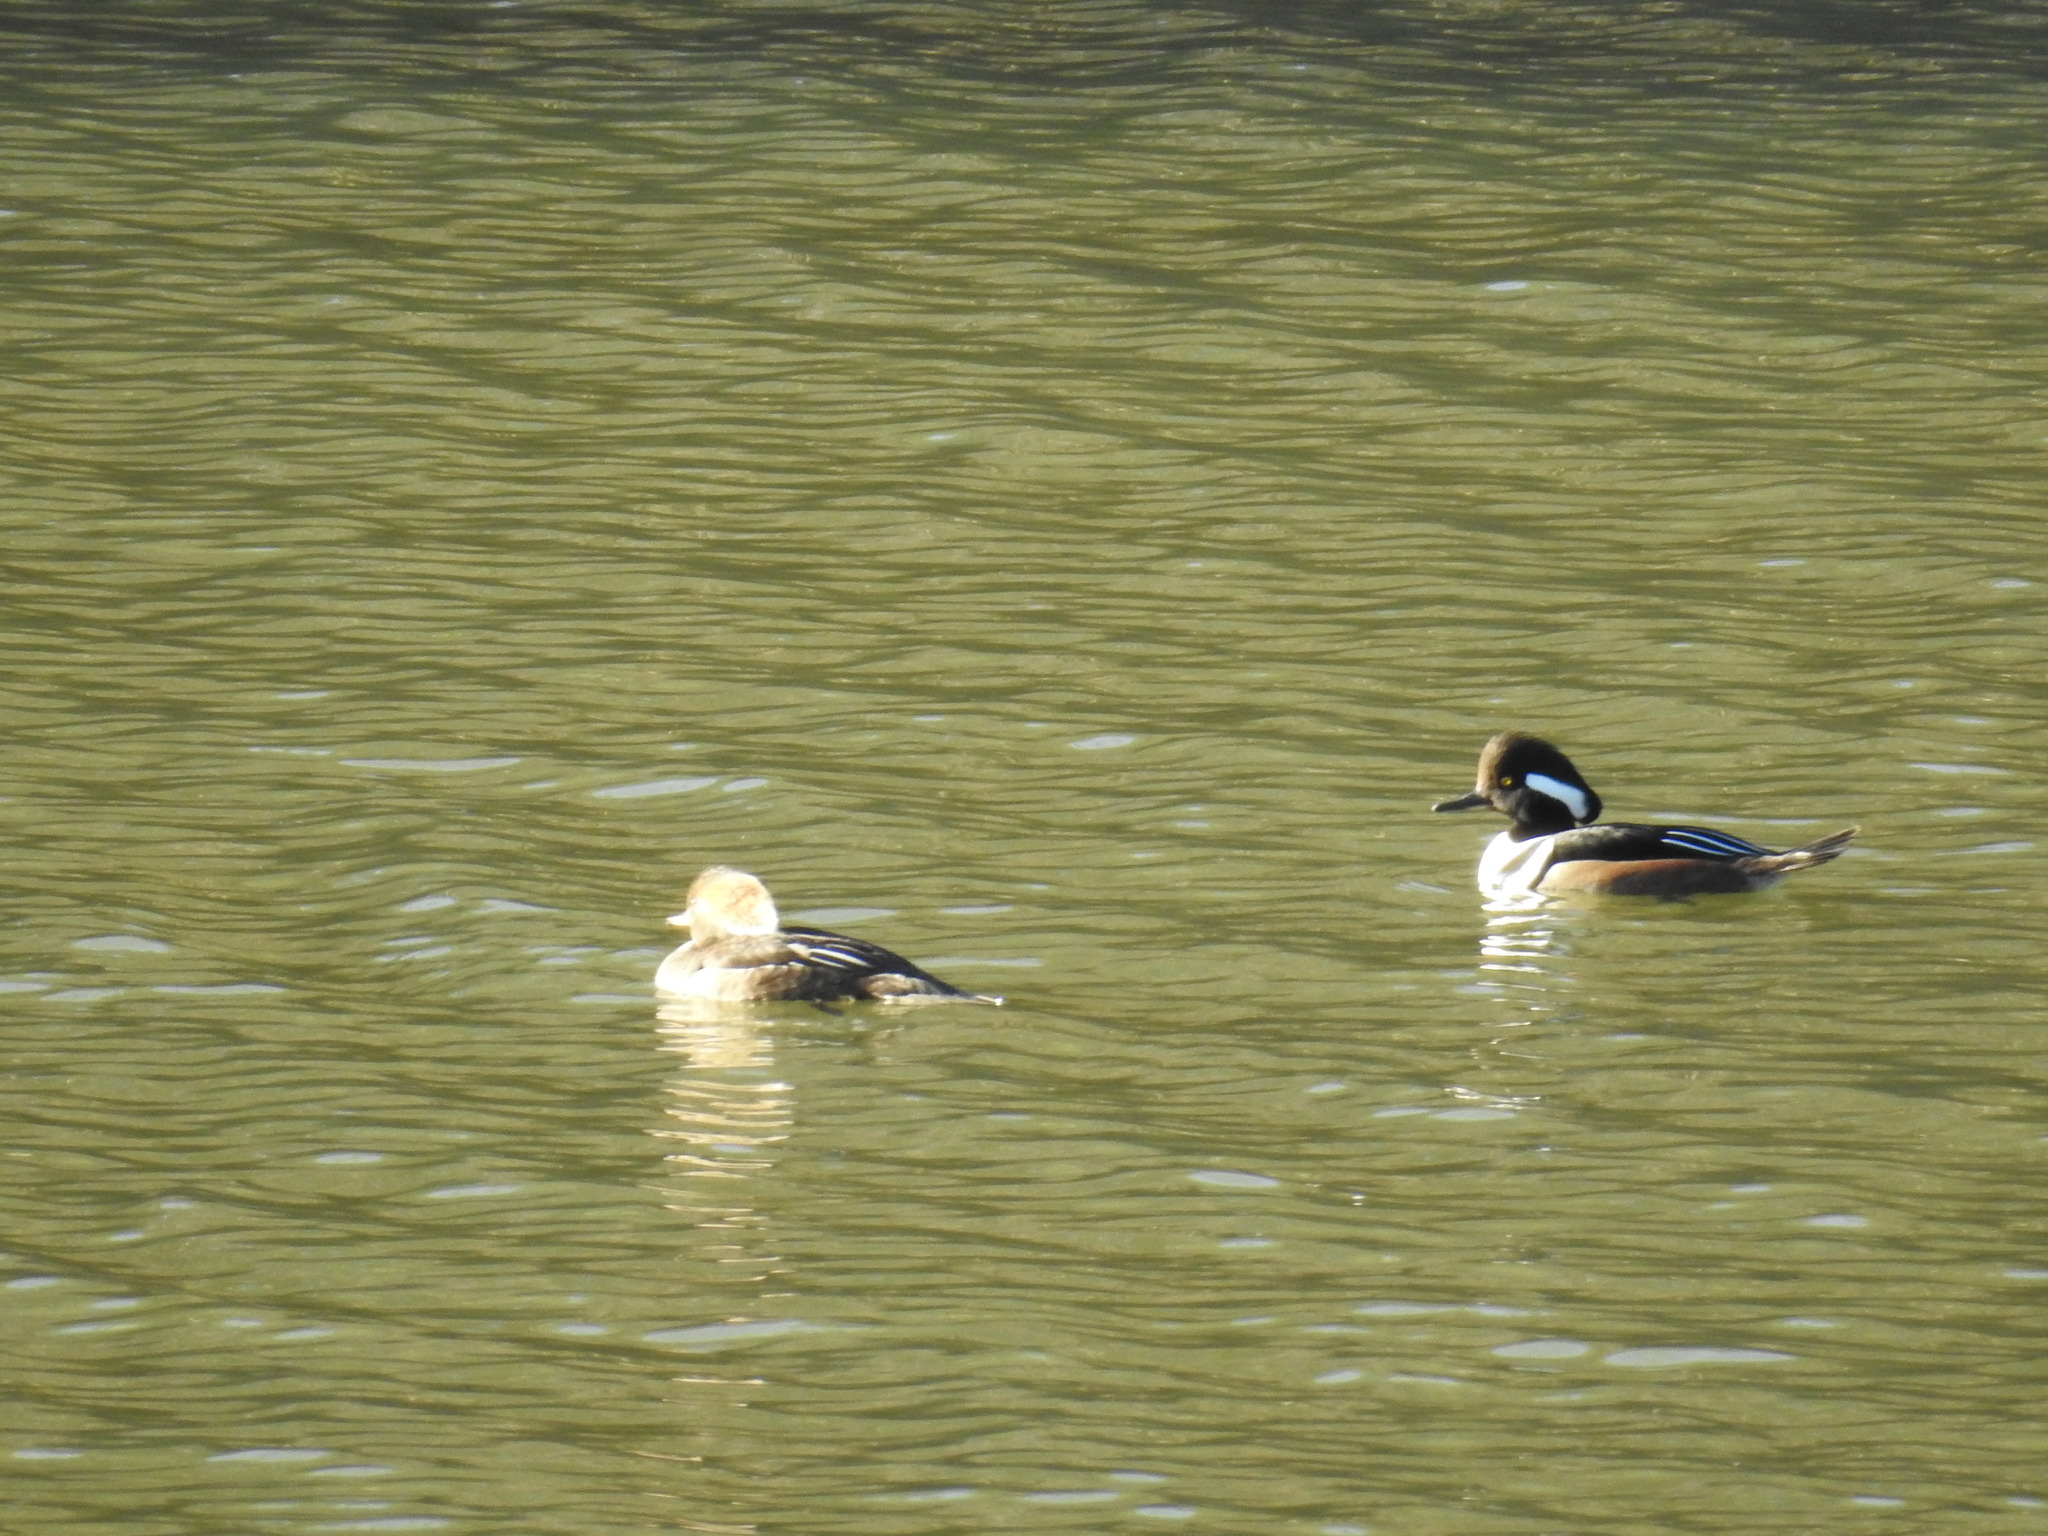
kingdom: Animalia
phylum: Chordata
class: Aves
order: Anseriformes
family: Anatidae
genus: Lophodytes
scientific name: Lophodytes cucullatus
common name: Hooded merganser
